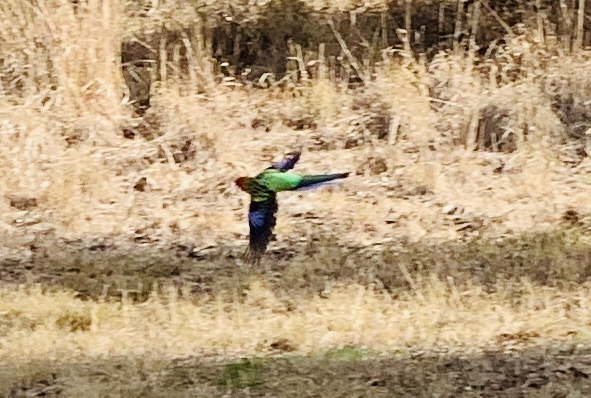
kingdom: Animalia
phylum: Chordata
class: Aves
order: Psittaciformes
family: Psittacidae
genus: Platycercus
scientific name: Platycercus eximius
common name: Eastern rosella
